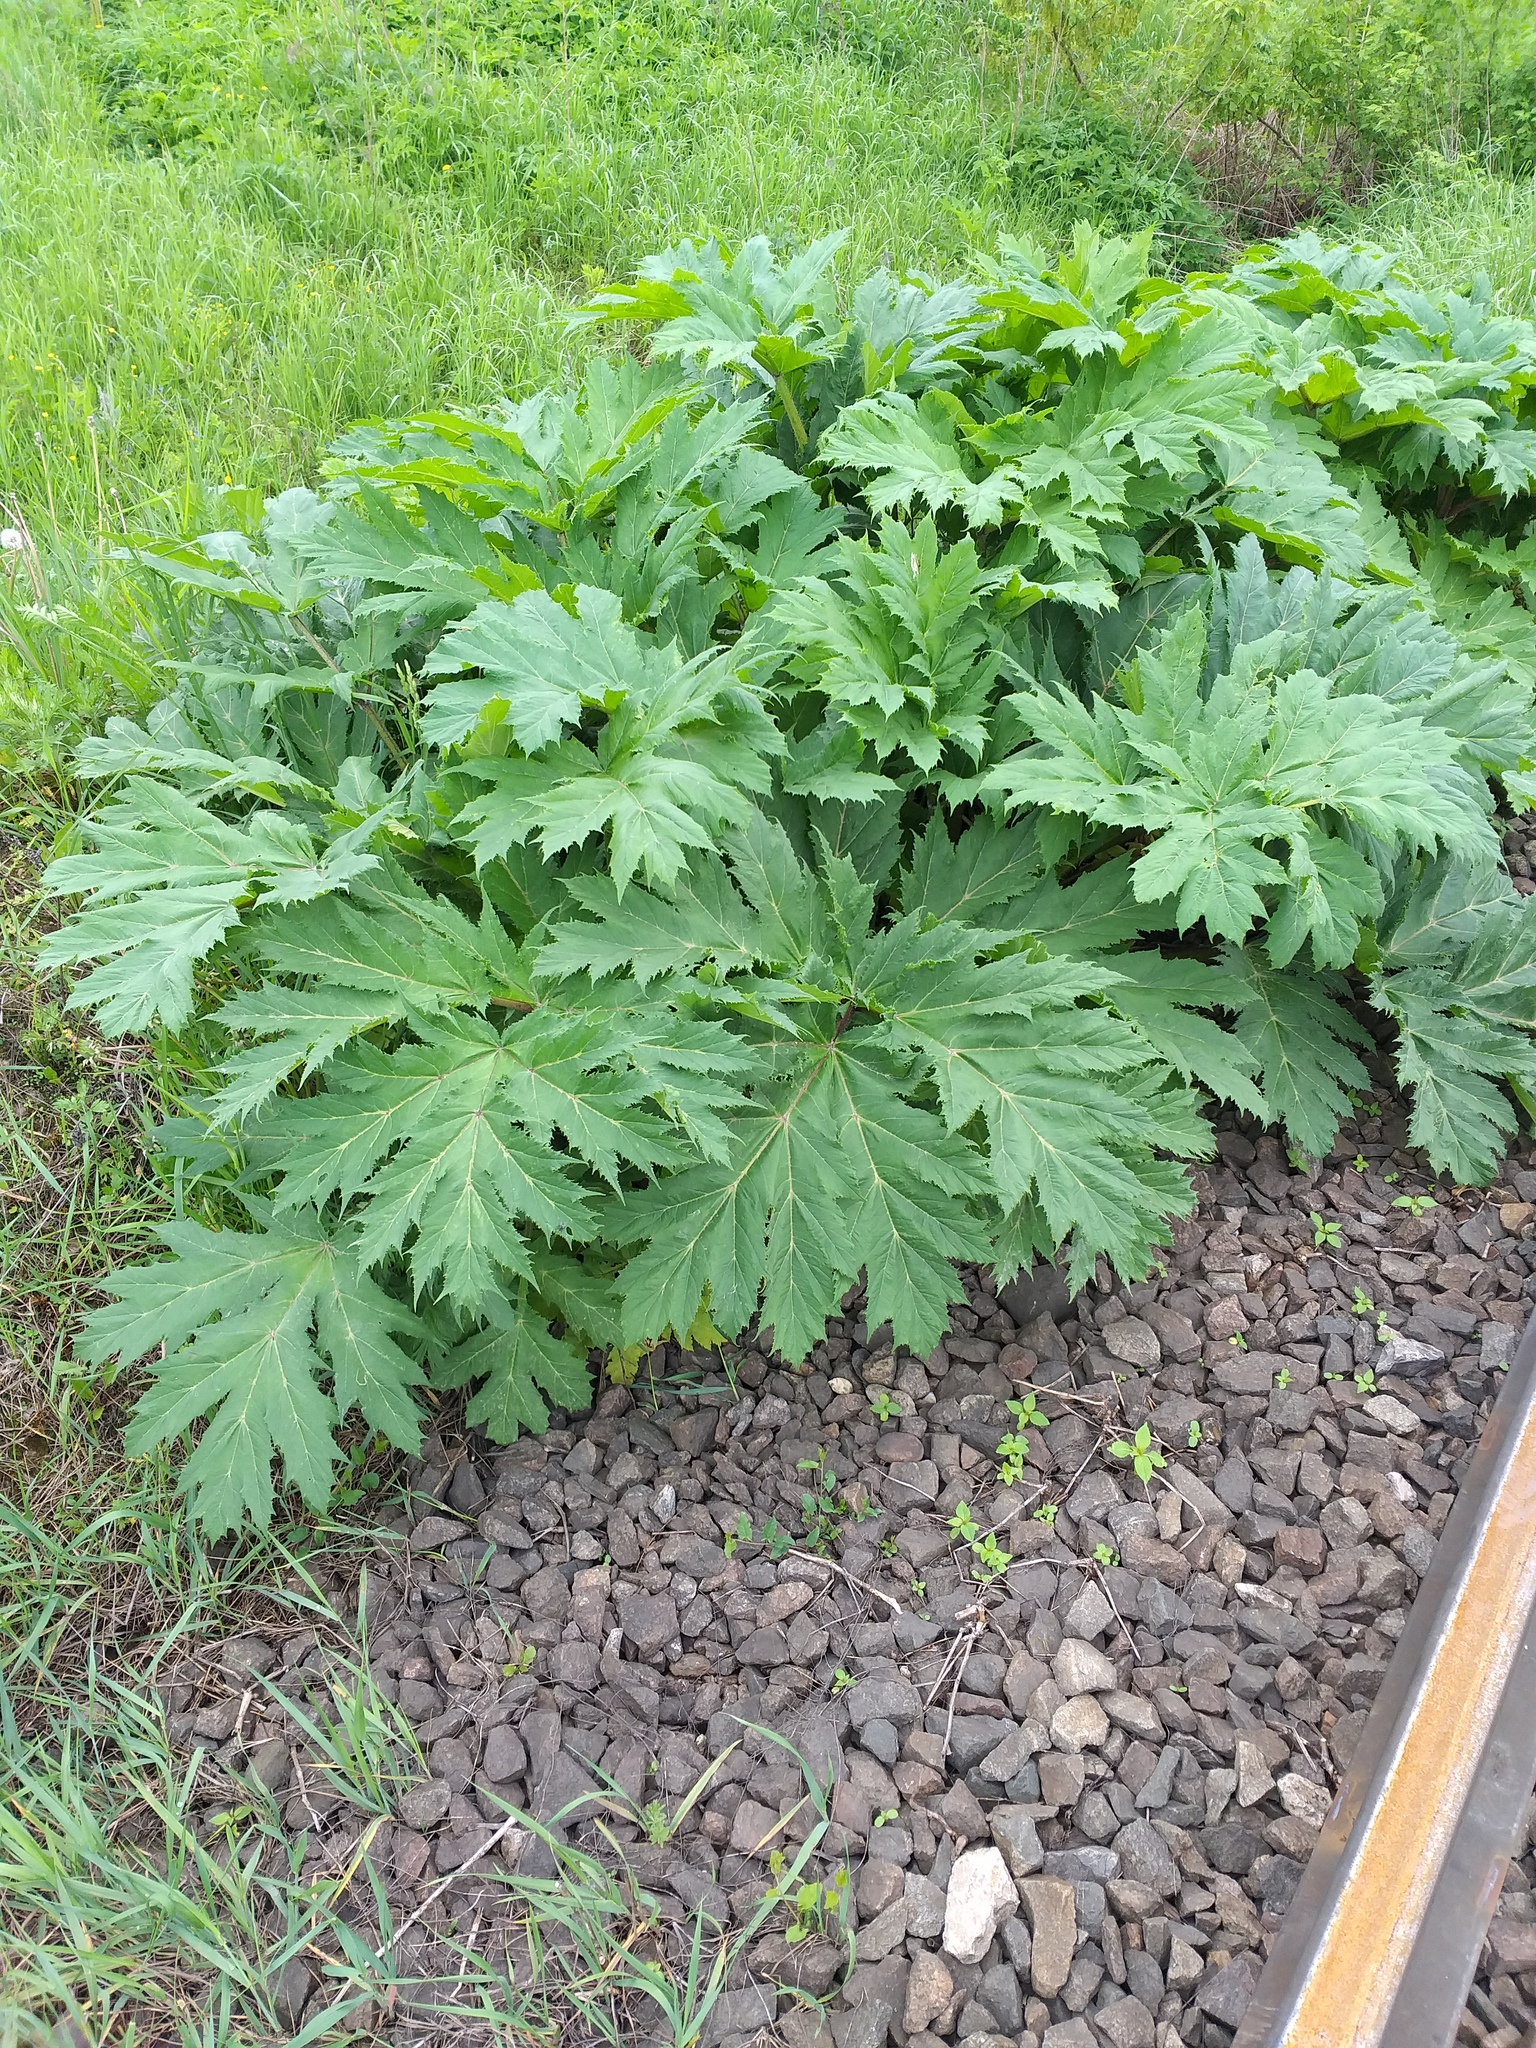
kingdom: Plantae
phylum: Tracheophyta
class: Magnoliopsida
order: Apiales
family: Apiaceae
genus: Heracleum
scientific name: Heracleum sosnowskyi
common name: Sosnowsky's hogweed
